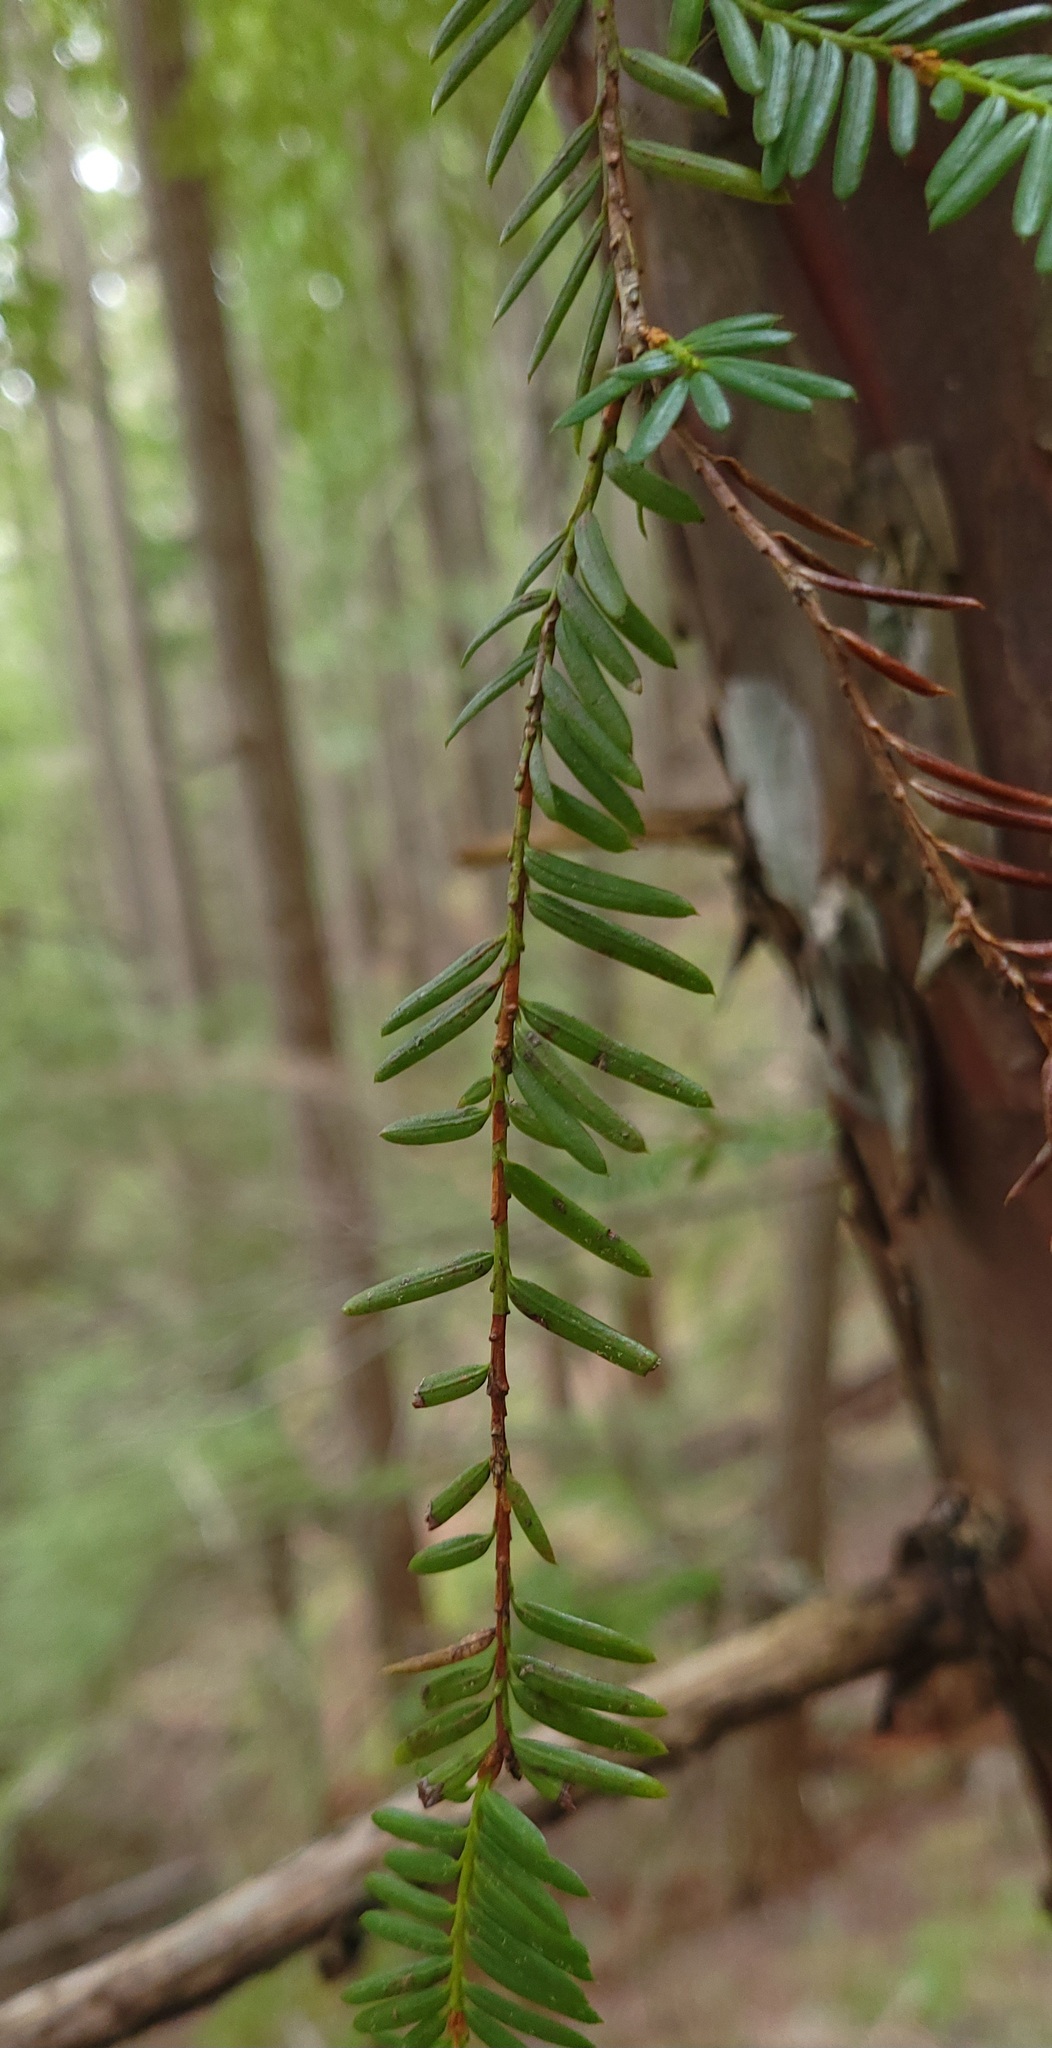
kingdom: Plantae
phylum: Tracheophyta
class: Pinopsida
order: Pinales
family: Taxaceae
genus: Taxus
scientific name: Taxus brevifolia
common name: Pacific yew
